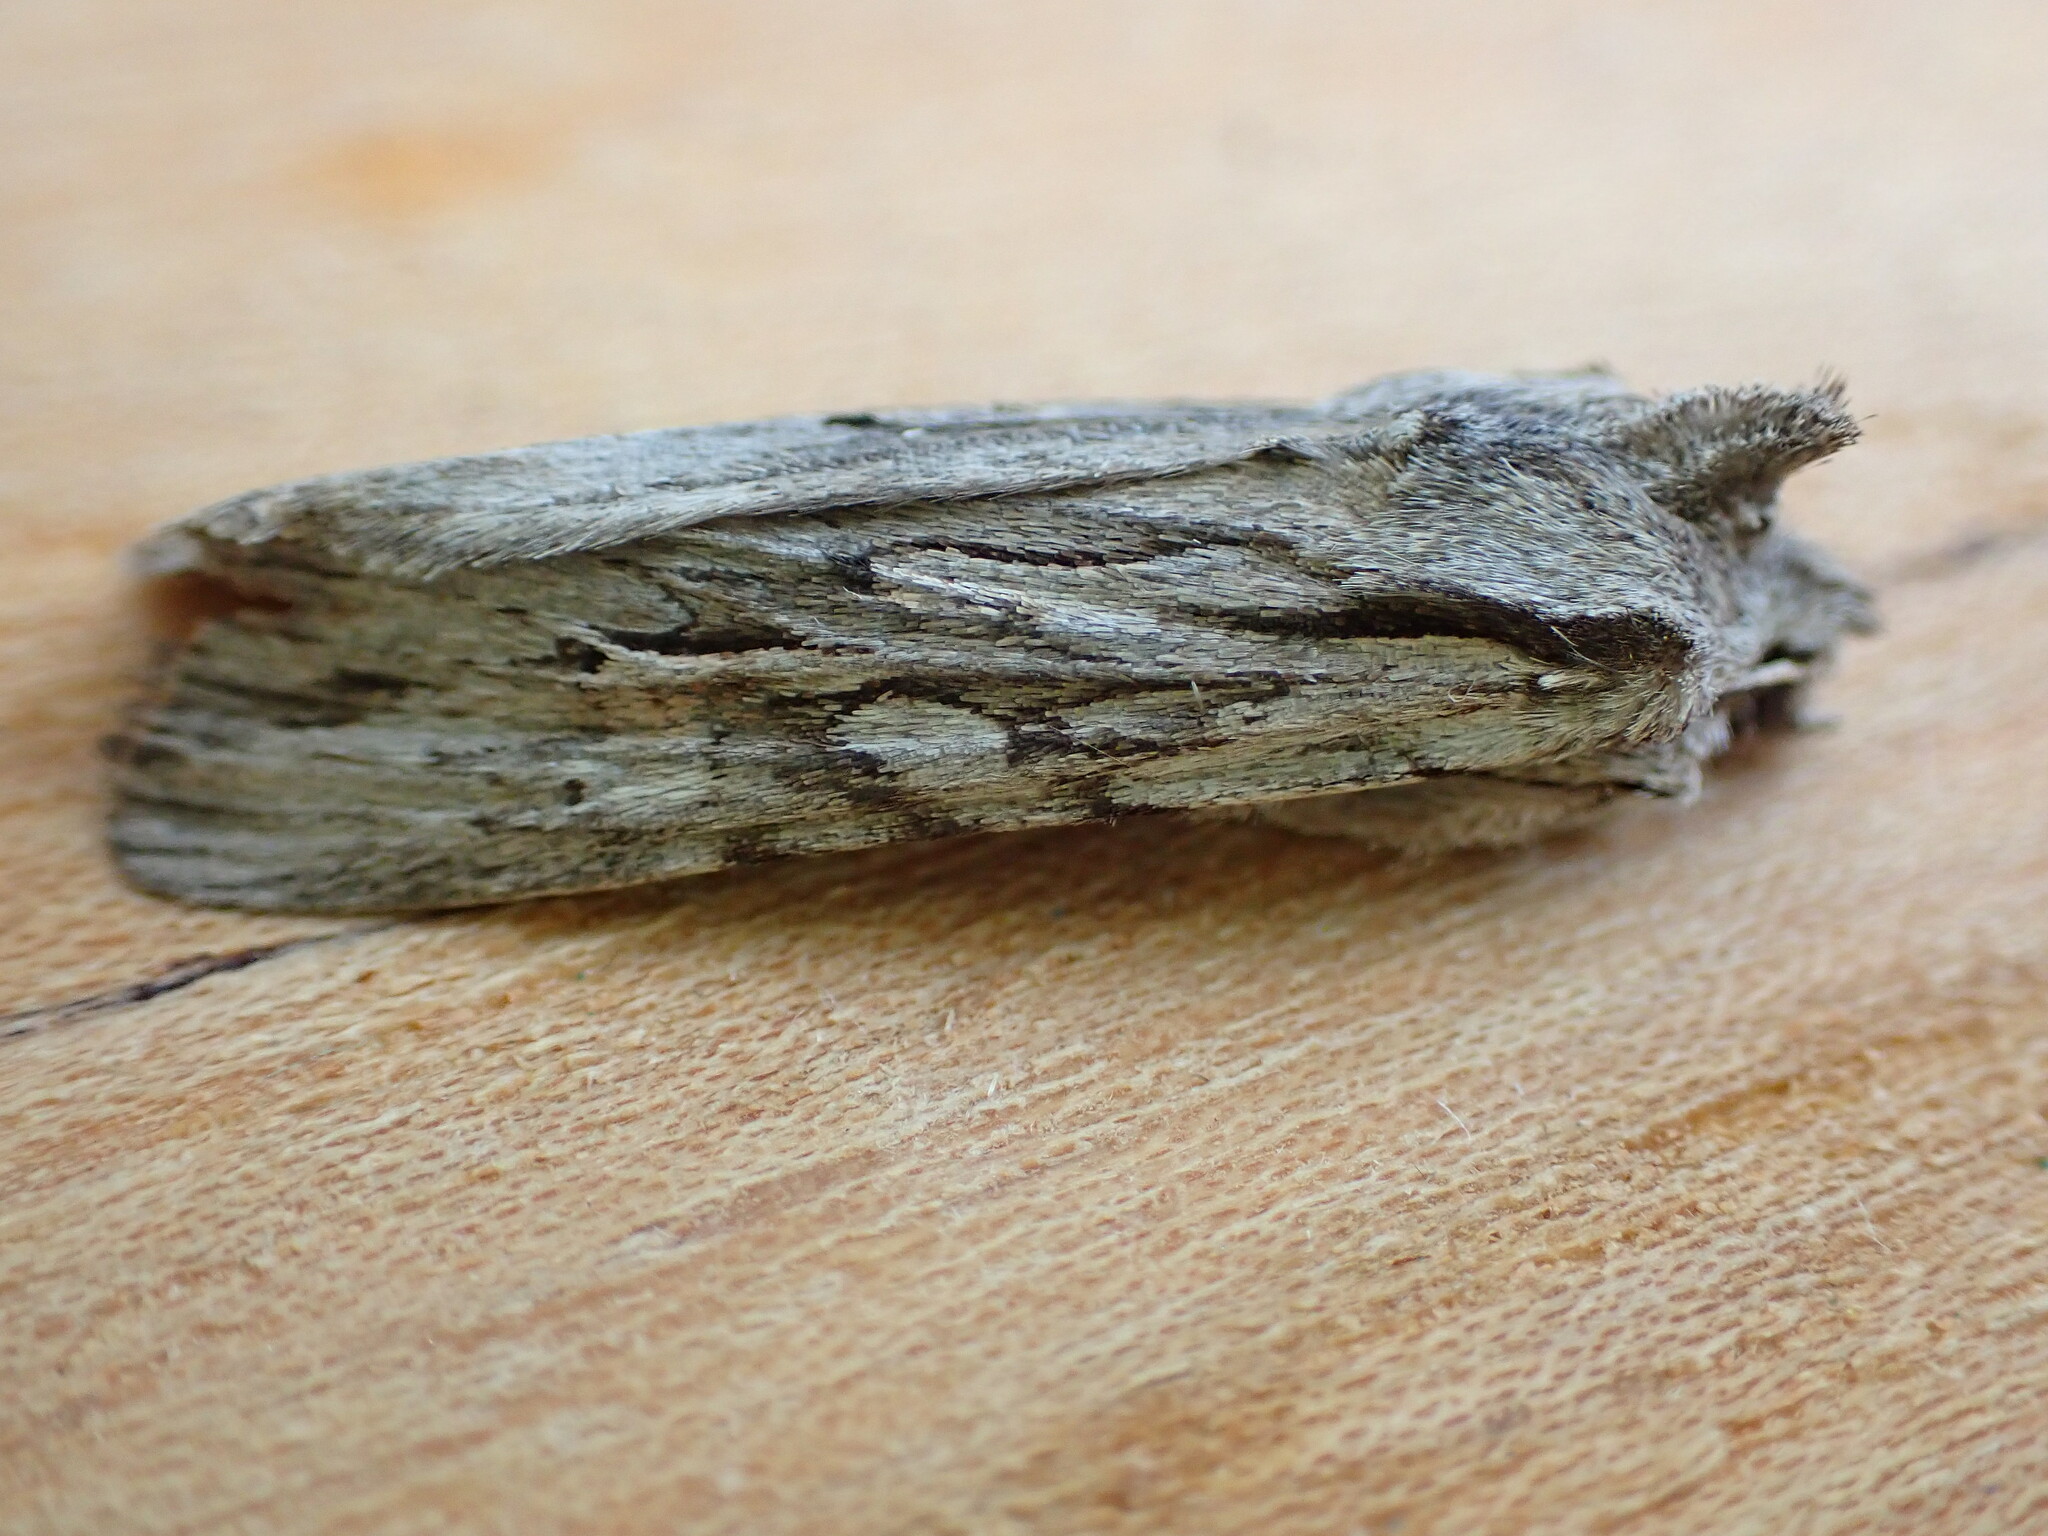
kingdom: Animalia
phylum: Arthropoda
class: Insecta
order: Lepidoptera
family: Noctuidae
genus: Lithophane
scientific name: Lithophane leautieri
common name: Blair's shoulder-knot
